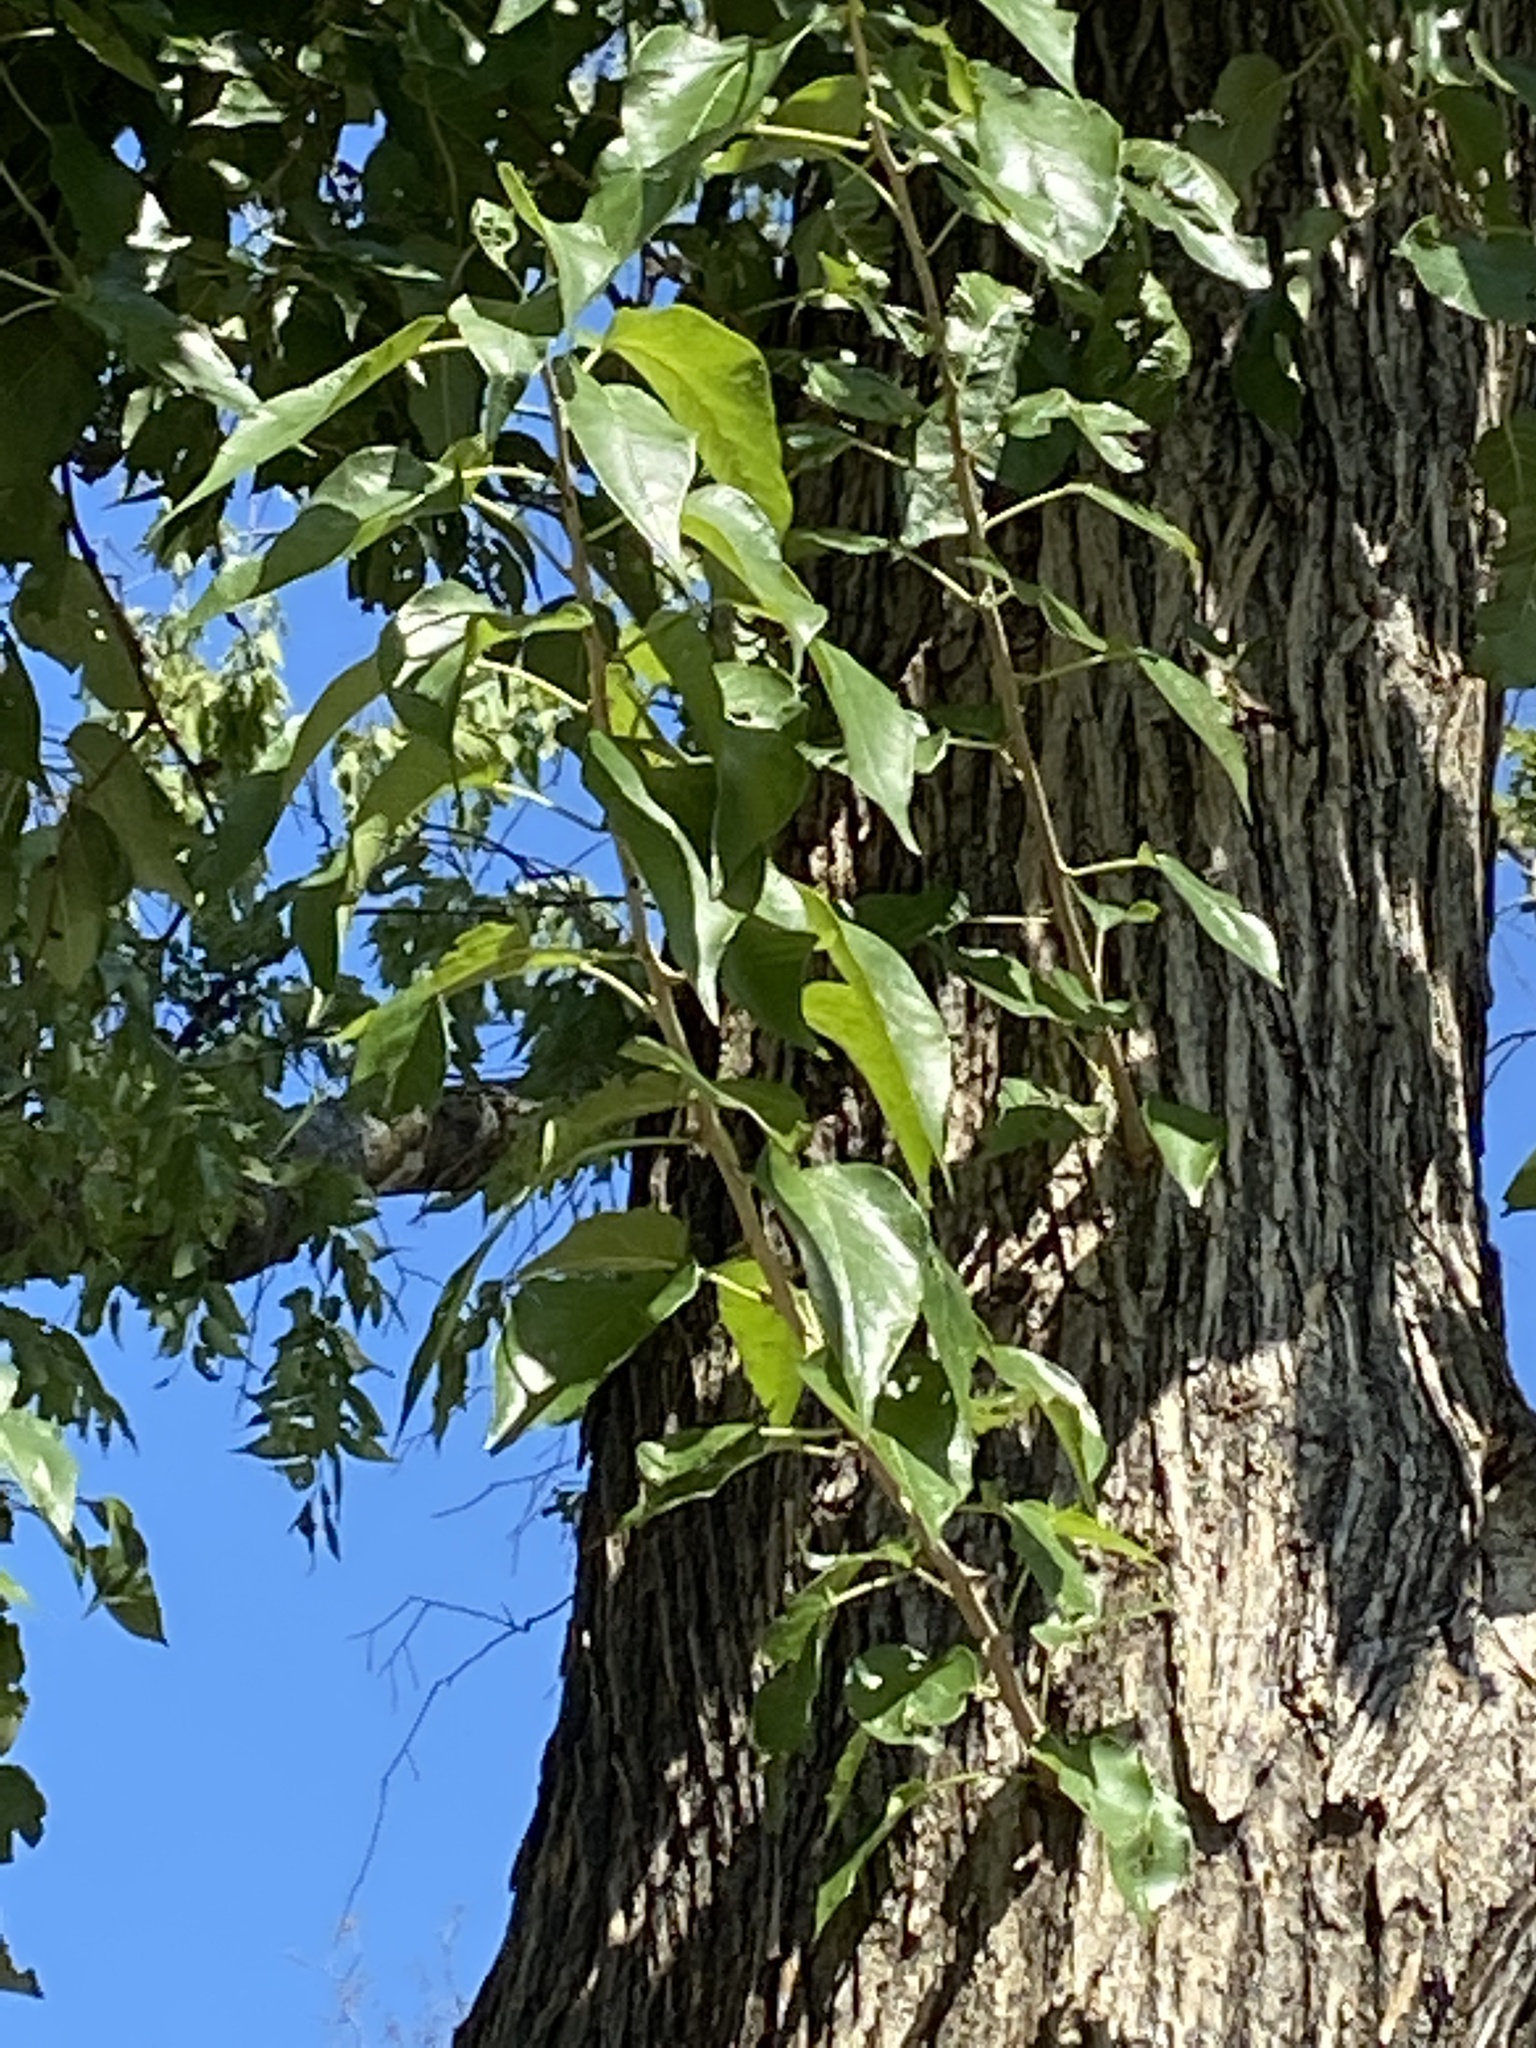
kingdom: Plantae
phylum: Tracheophyta
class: Magnoliopsida
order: Rosales
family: Moraceae
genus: Maclura
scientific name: Maclura pomifera
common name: Osage-orange
